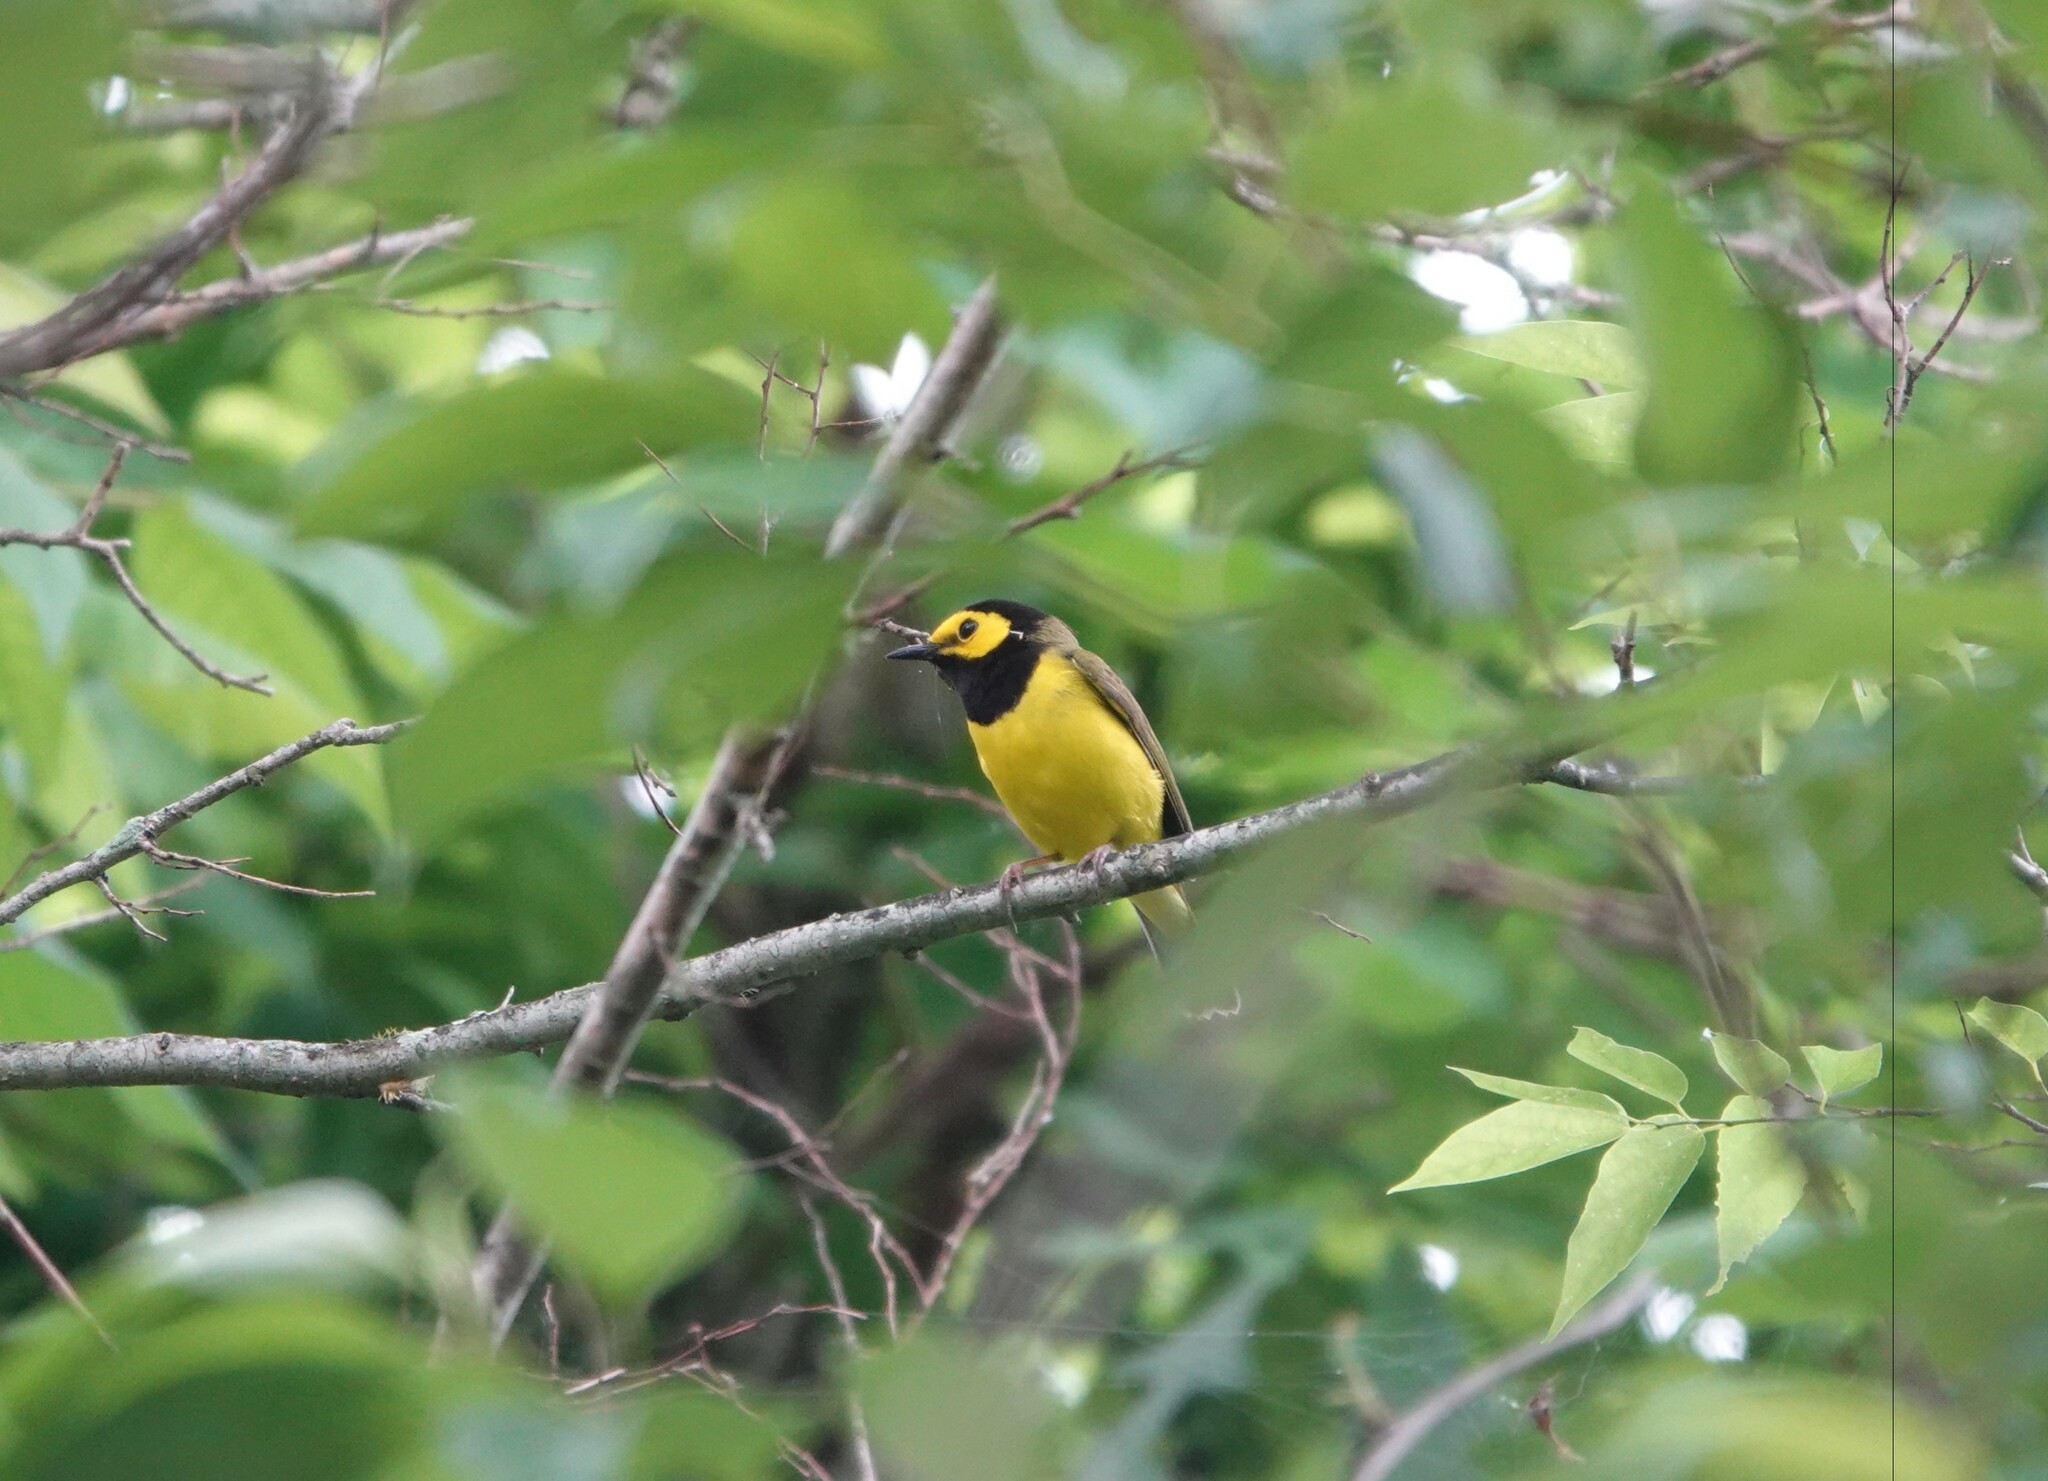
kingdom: Animalia
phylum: Chordata
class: Aves
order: Passeriformes
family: Parulidae
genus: Setophaga
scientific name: Setophaga citrina
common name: Hooded warbler
